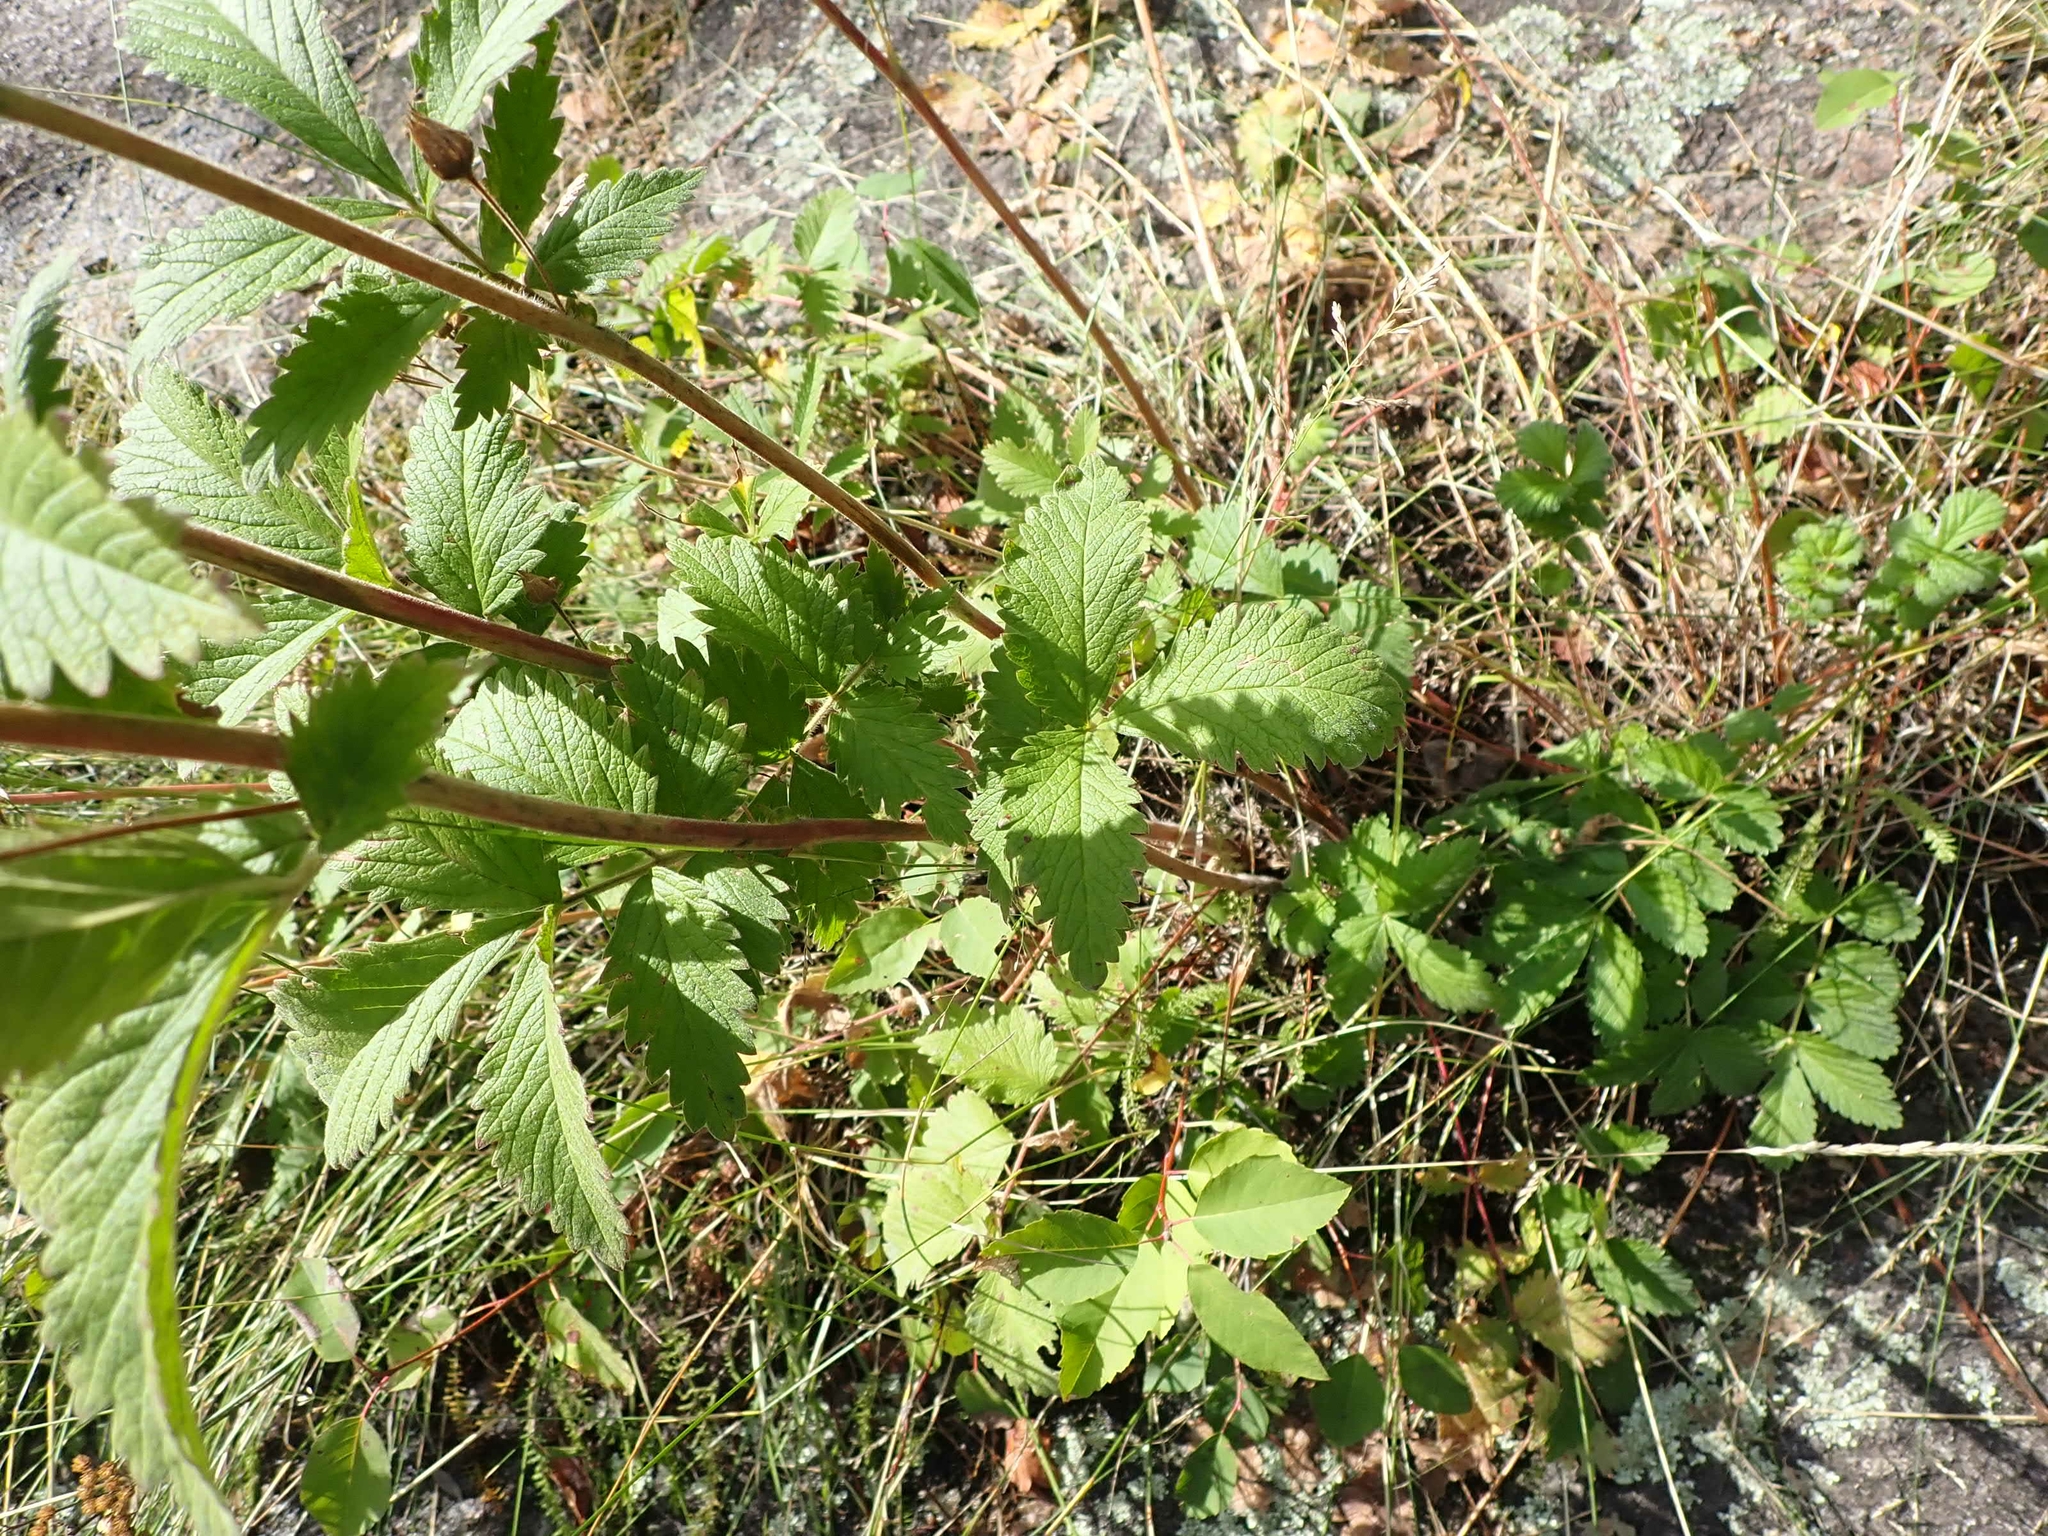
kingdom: Plantae
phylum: Tracheophyta
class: Magnoliopsida
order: Rosales
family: Rosaceae
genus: Drymocallis
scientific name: Drymocallis arguta
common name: Tall cinquefoil
